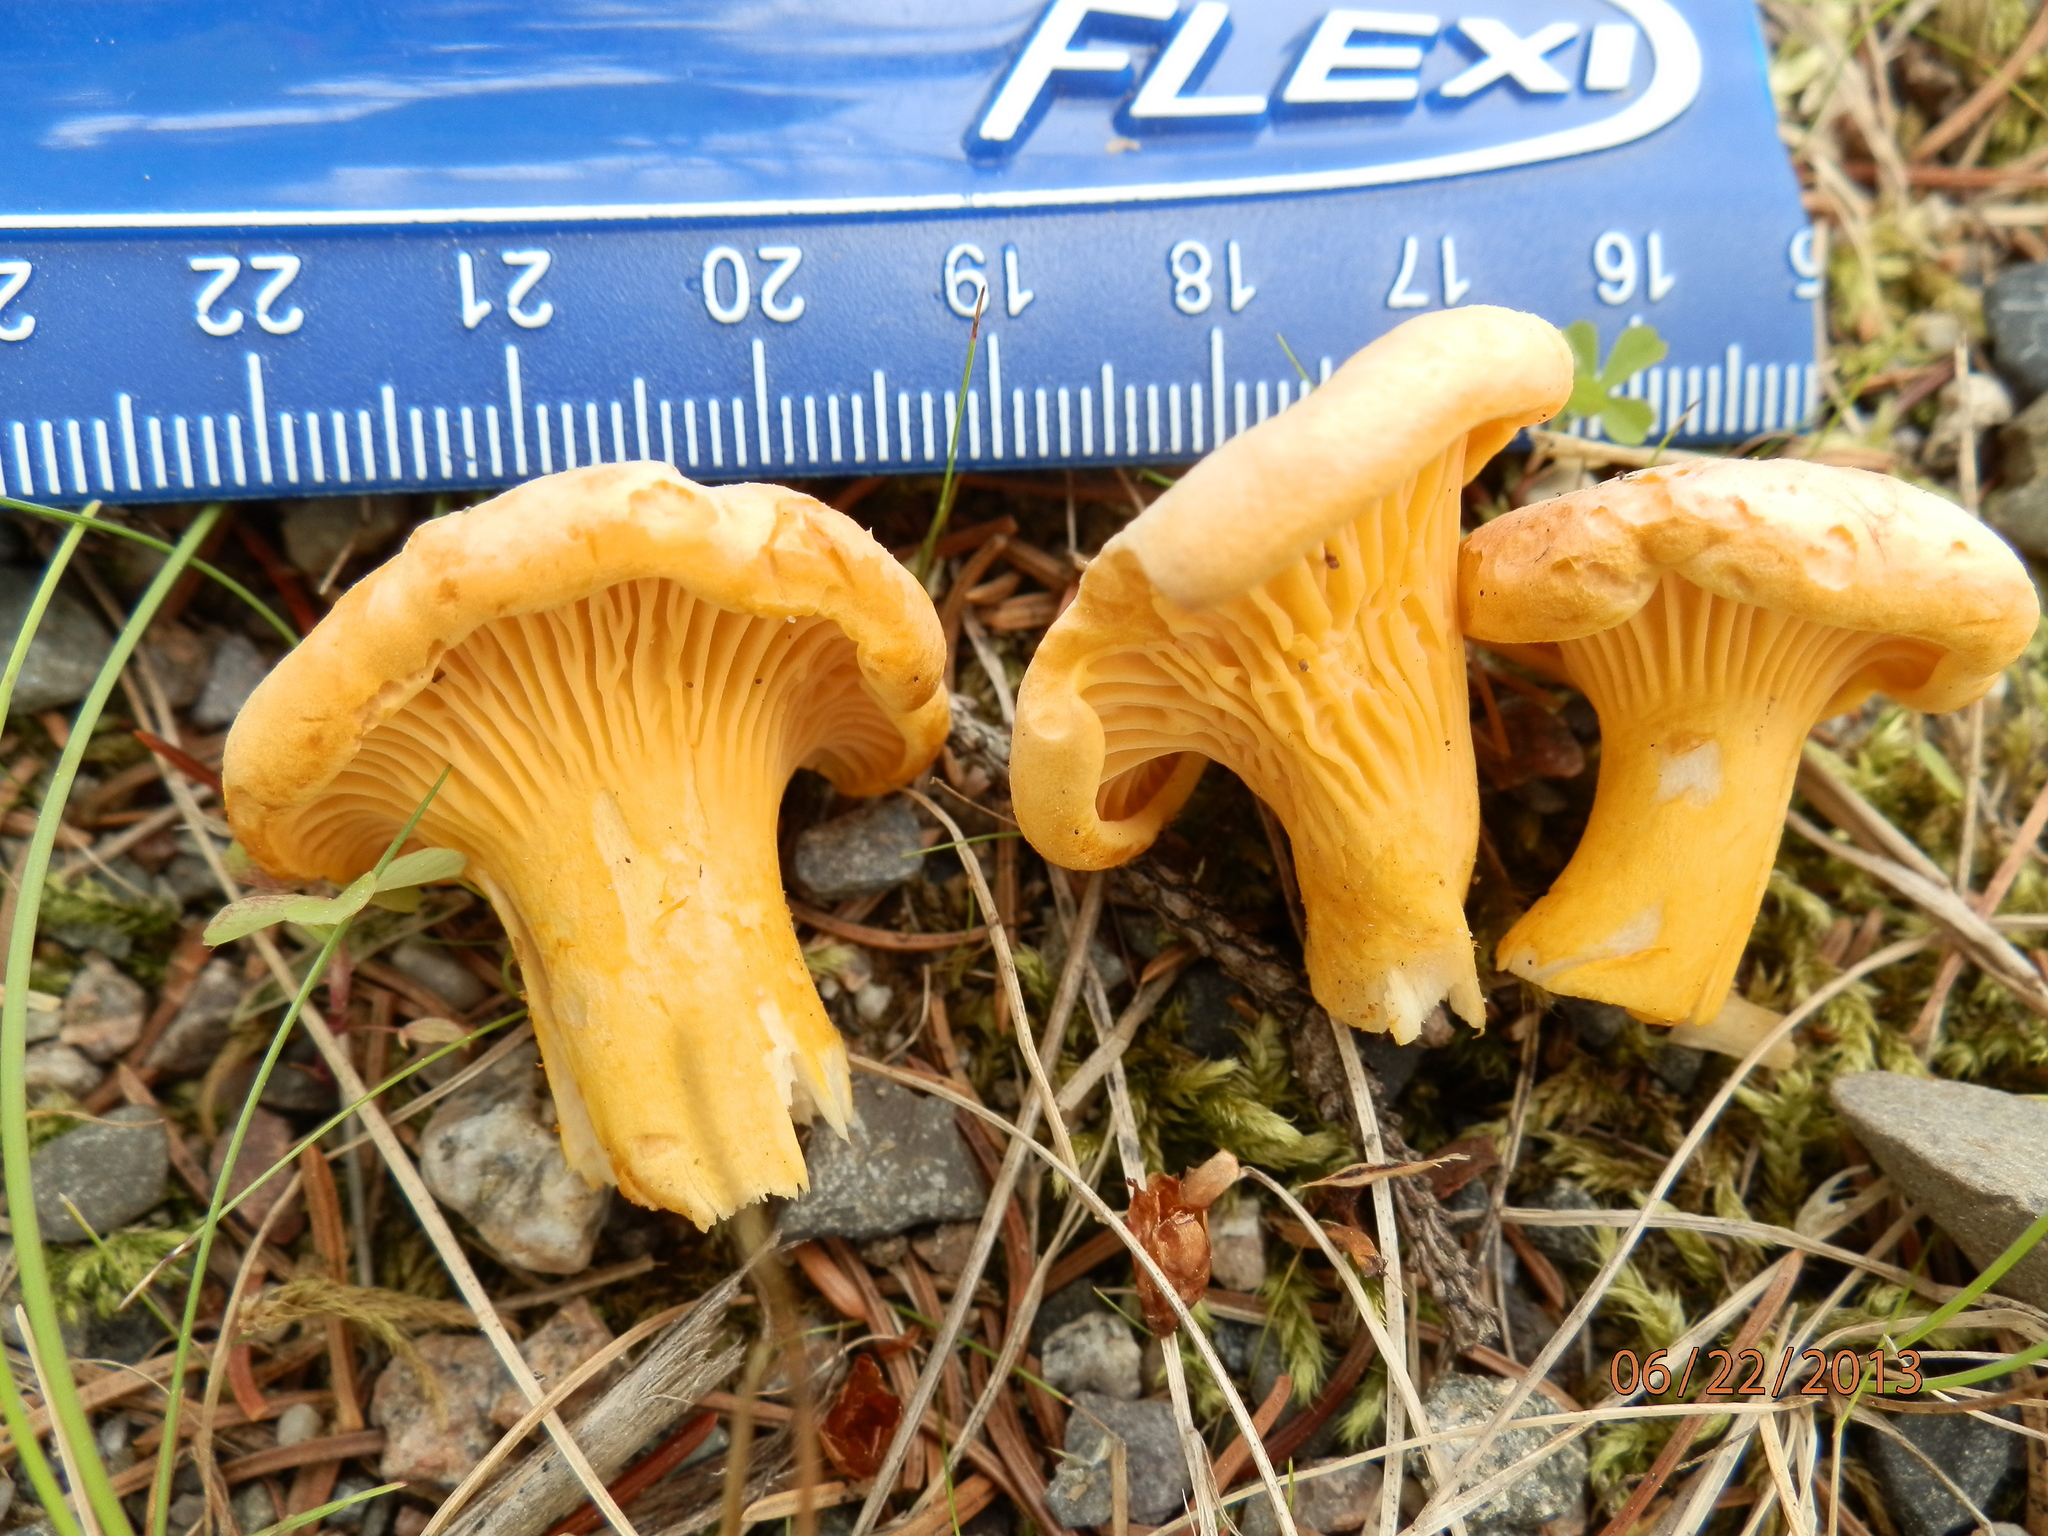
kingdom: Fungi
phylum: Basidiomycota
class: Agaricomycetes
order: Cantharellales
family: Hydnaceae
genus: Cantharellus
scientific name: Cantharellus enelensis
